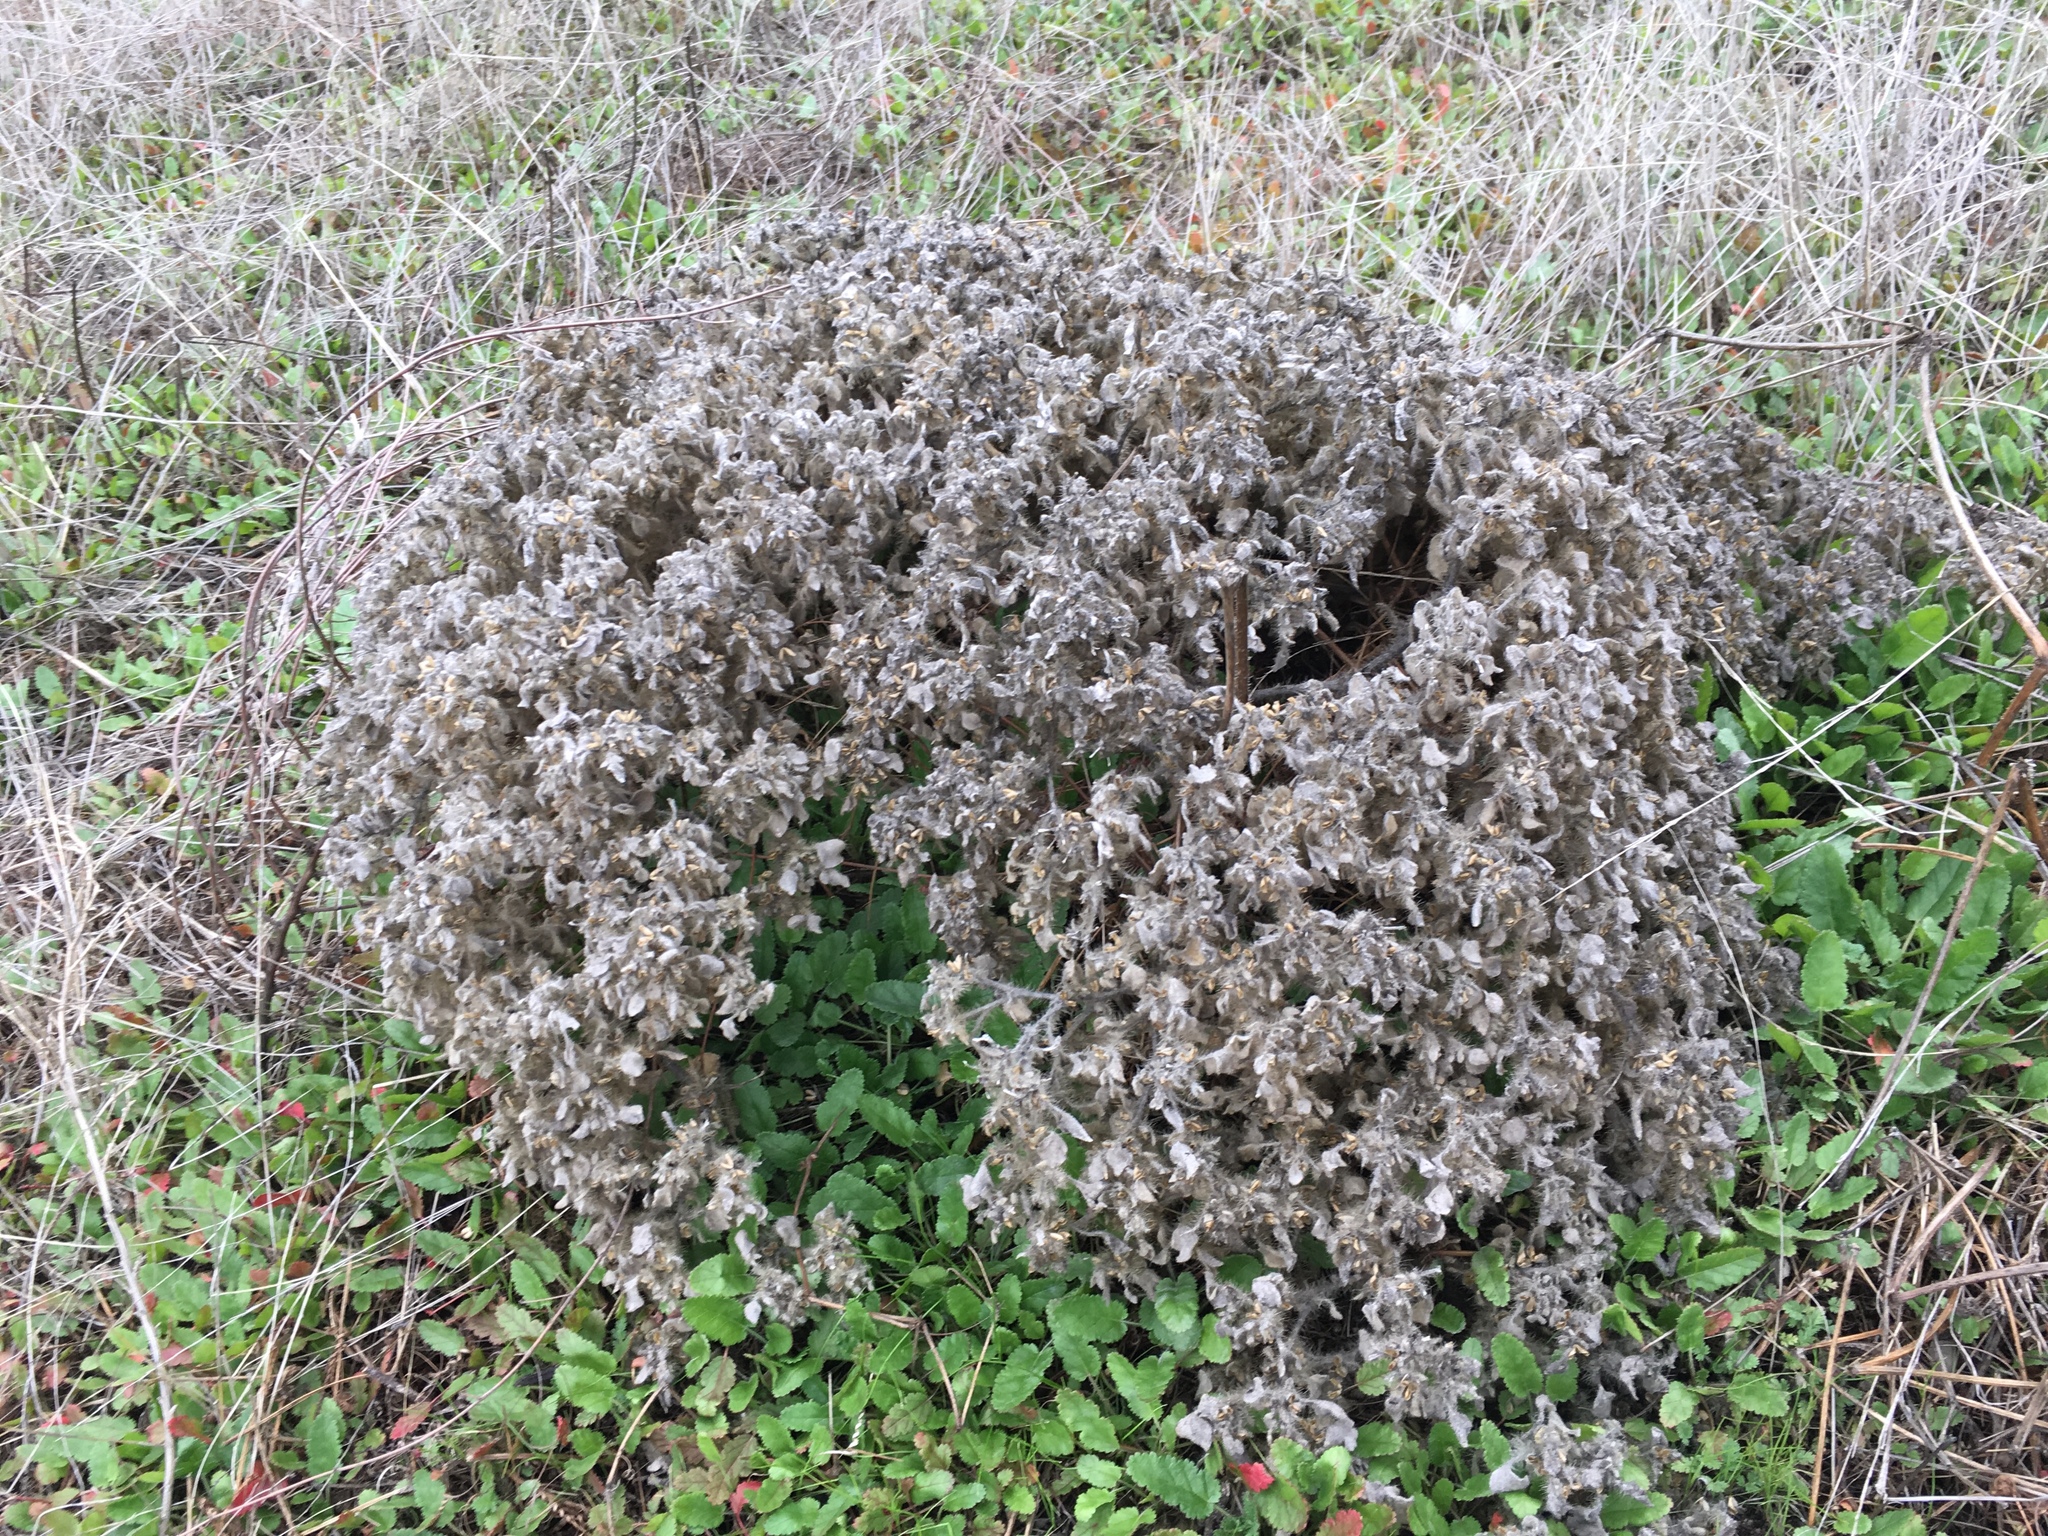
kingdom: Plantae
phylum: Tracheophyta
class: Magnoliopsida
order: Malpighiales
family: Euphorbiaceae
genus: Croton
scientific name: Croton setiger
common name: Dove weed
